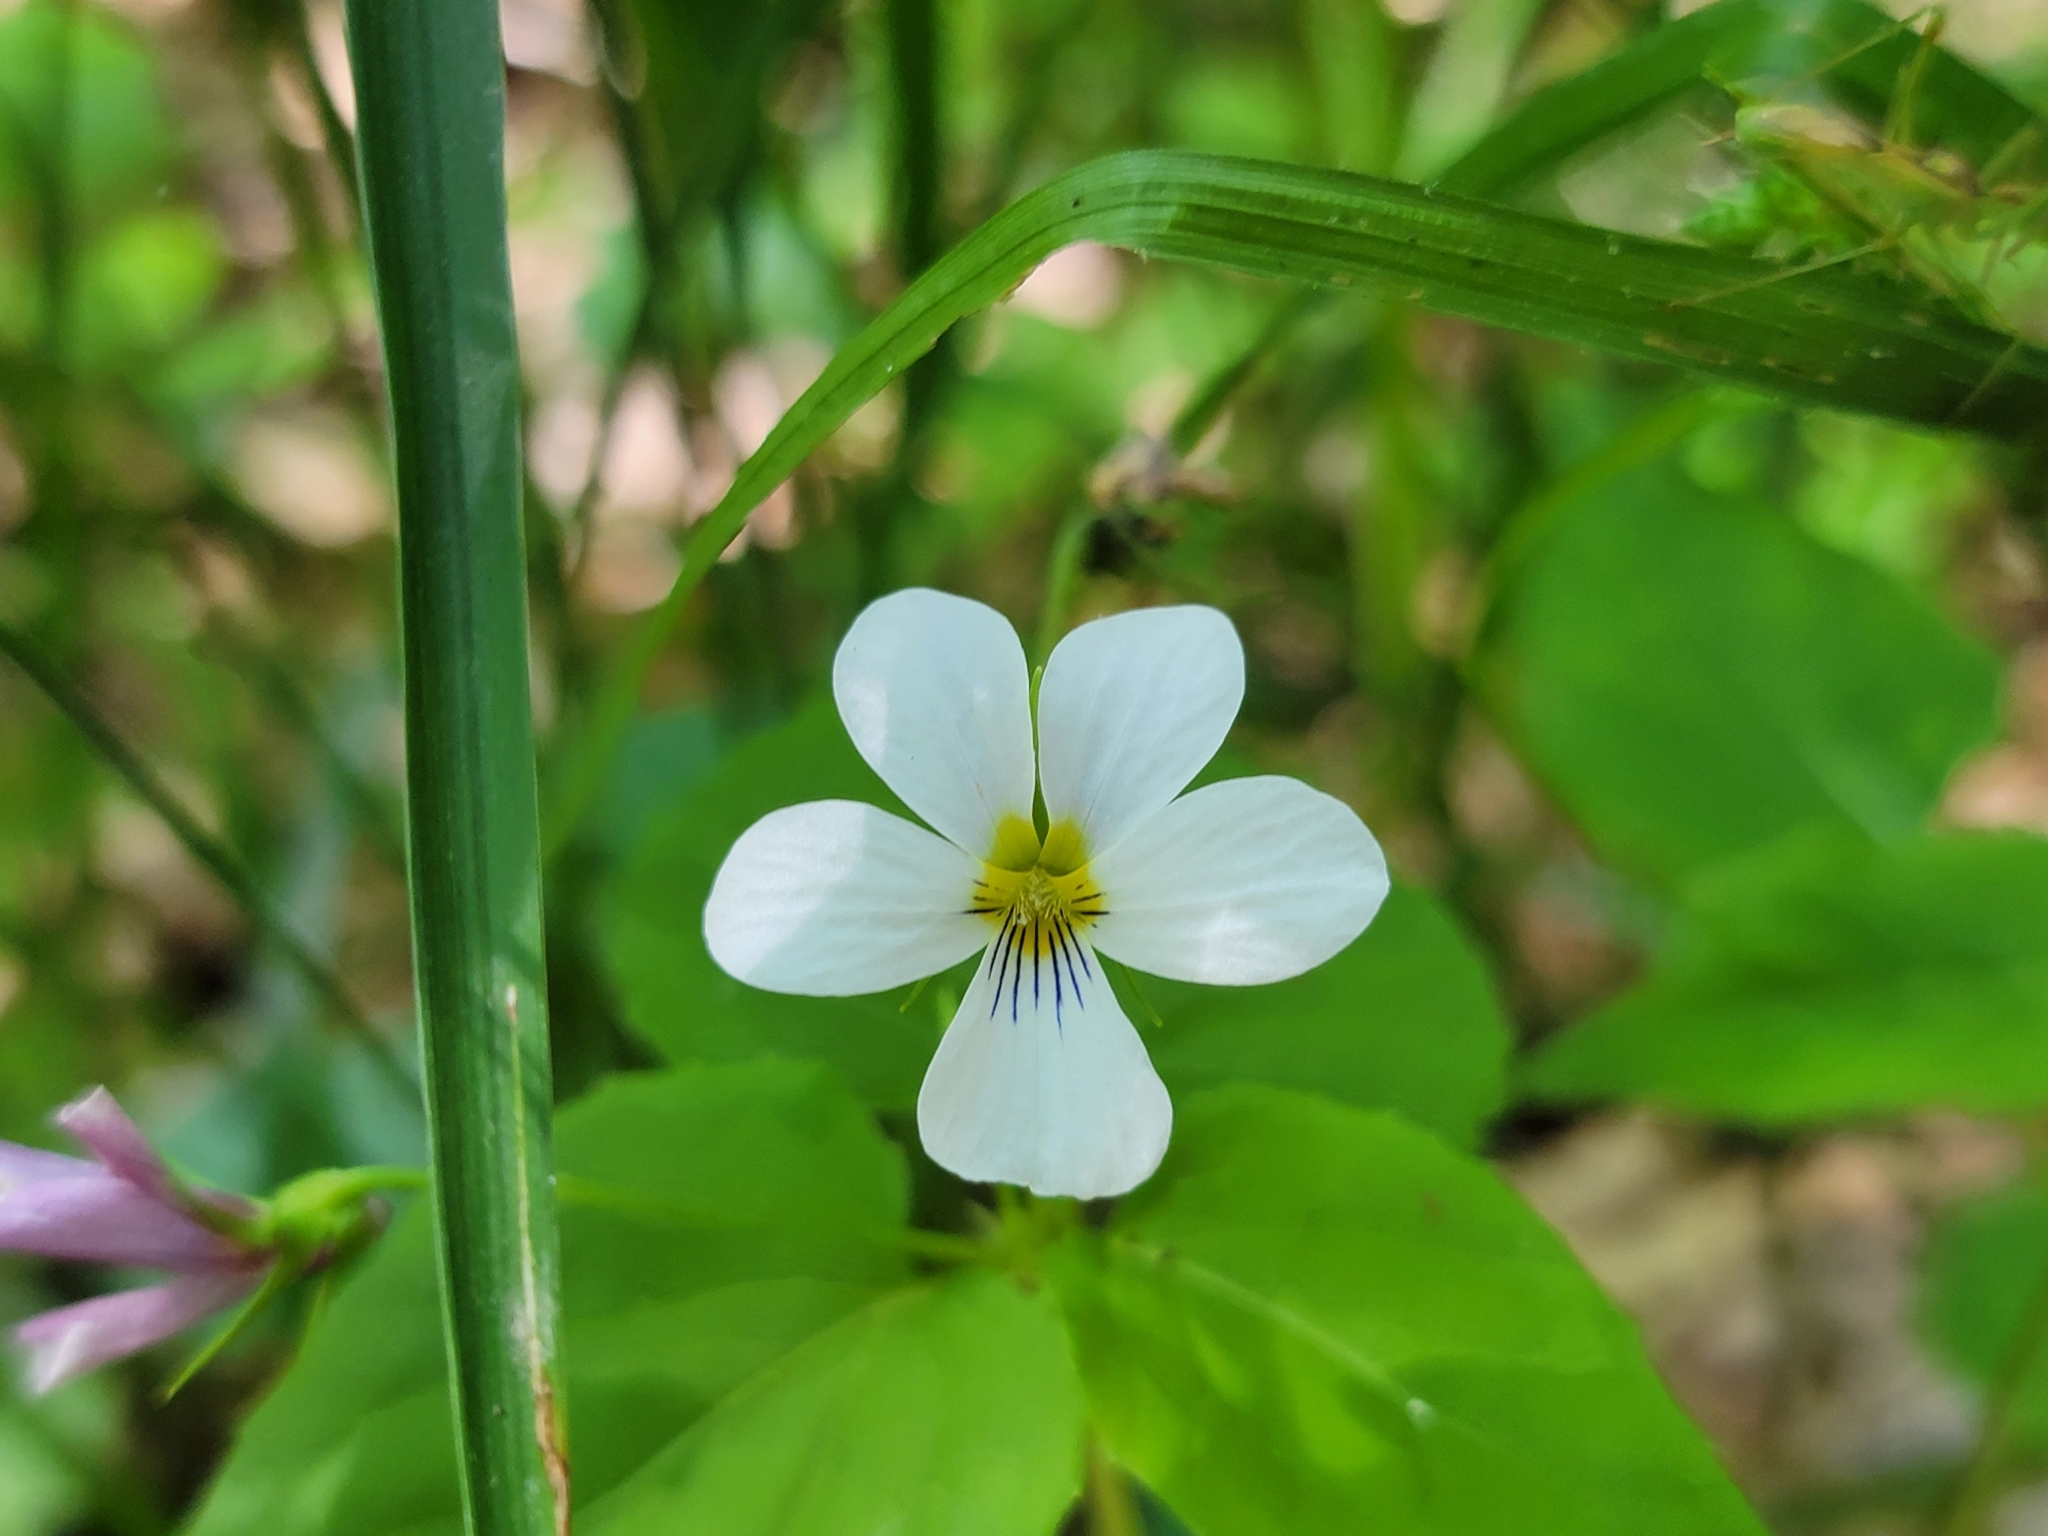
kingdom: Plantae
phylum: Tracheophyta
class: Magnoliopsida
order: Malpighiales
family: Violaceae
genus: Viola
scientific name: Viola canadensis
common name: Canada violet
